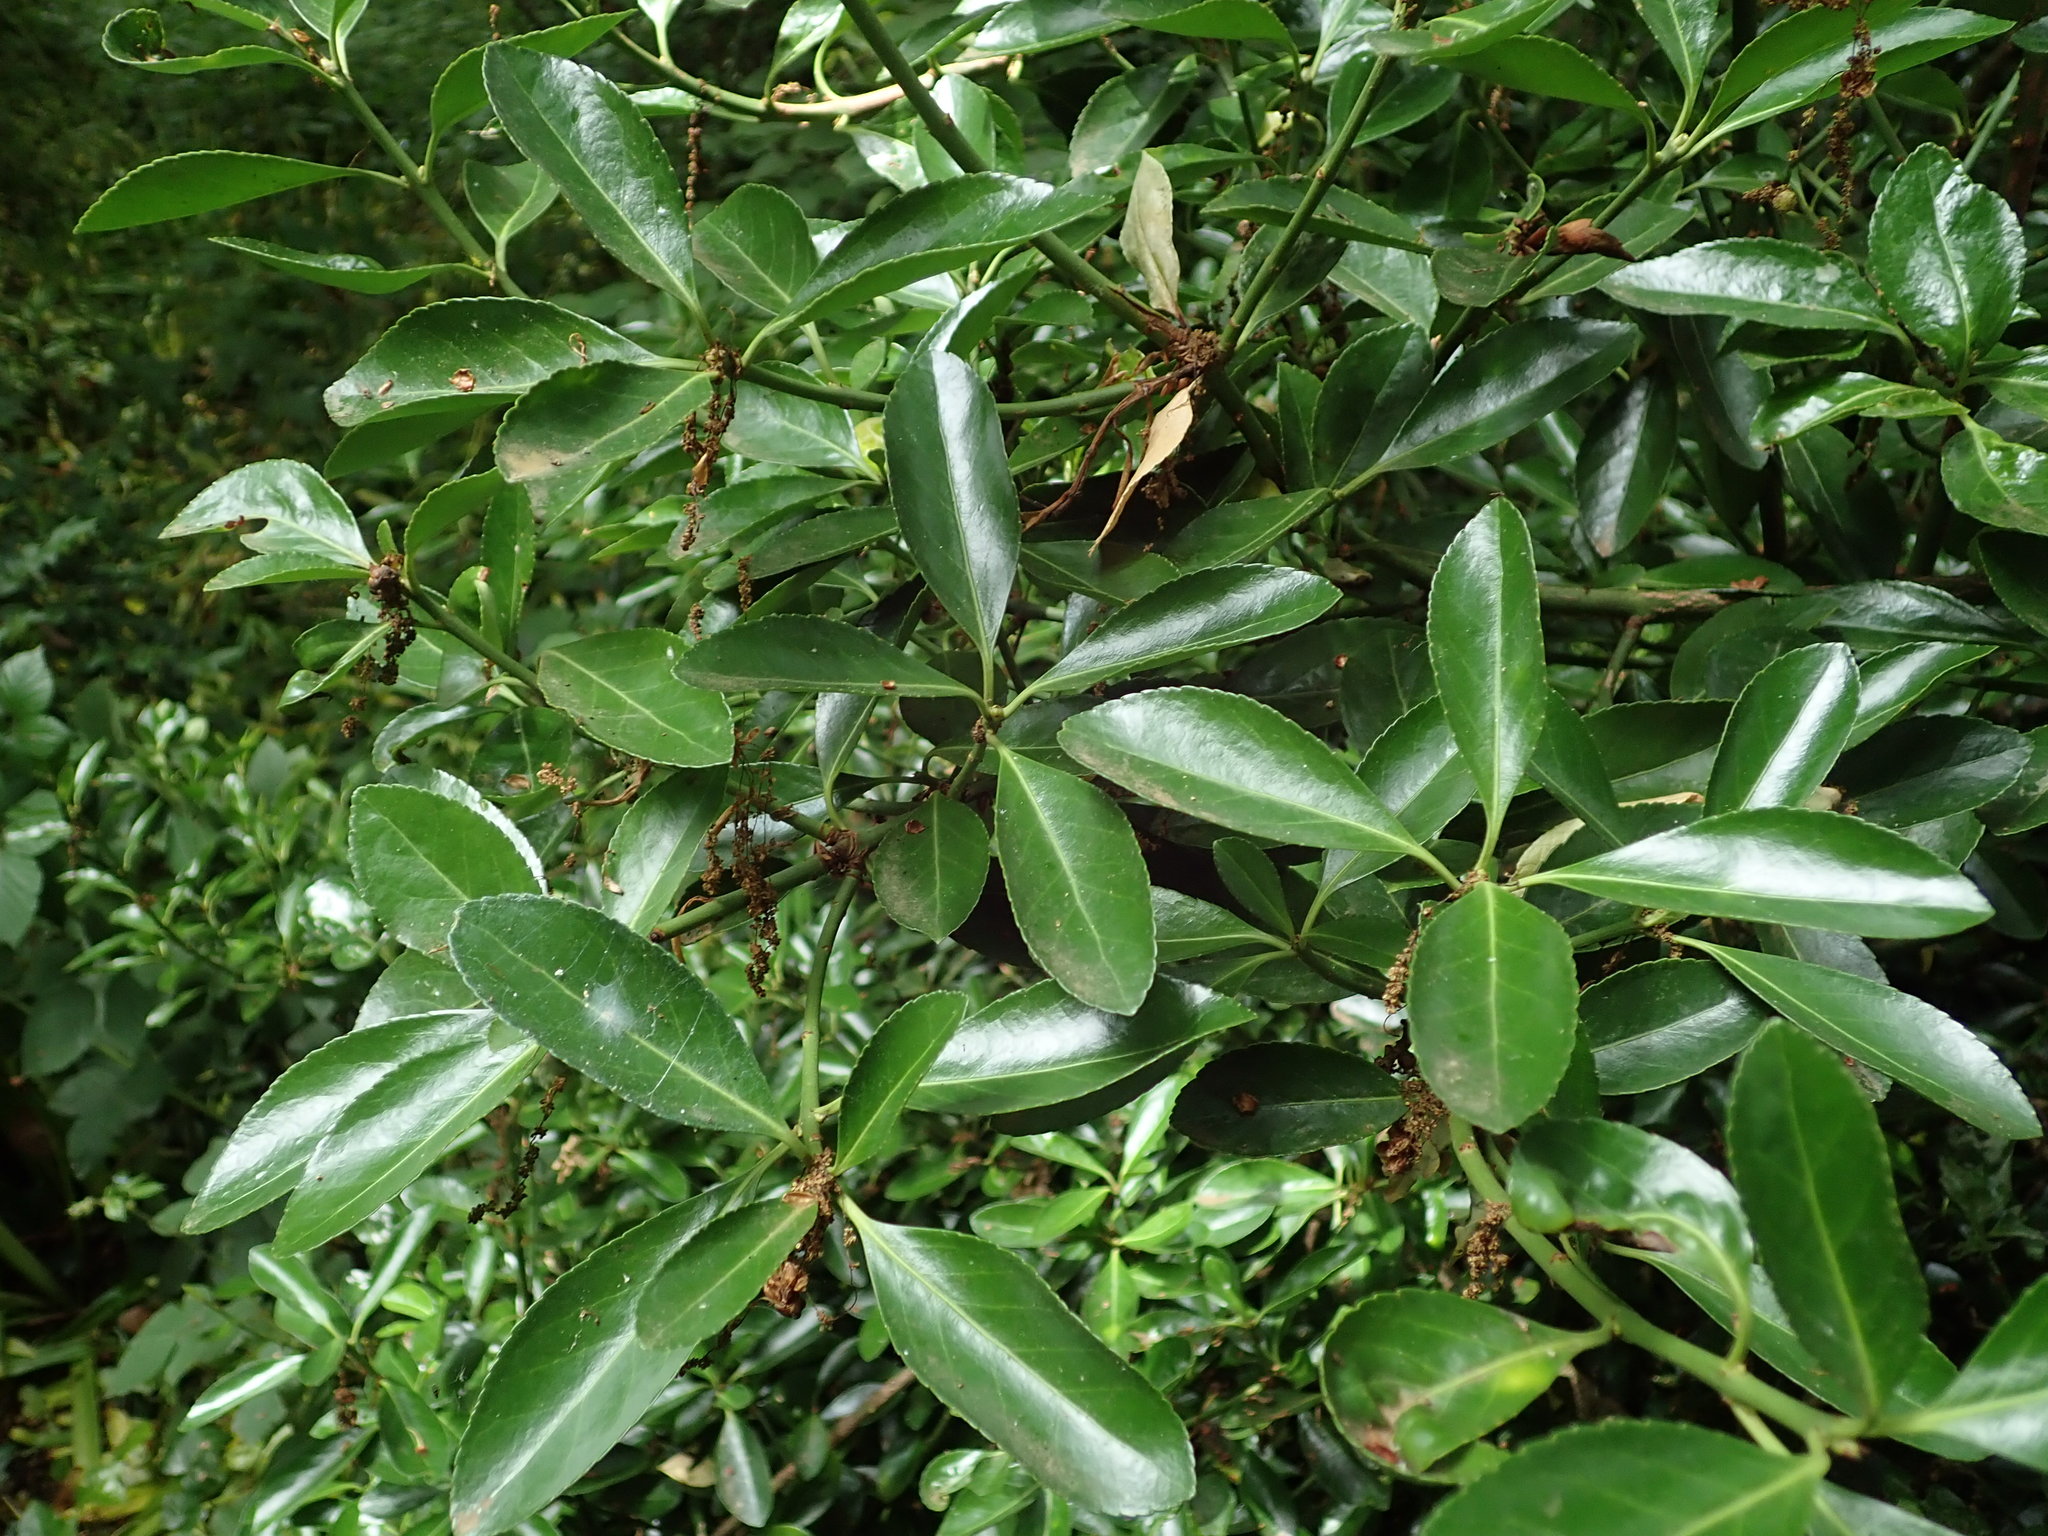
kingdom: Plantae
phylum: Tracheophyta
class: Magnoliopsida
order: Celastrales
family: Celastraceae
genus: Euonymus
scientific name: Euonymus japonicus
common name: Japanese spindletree
